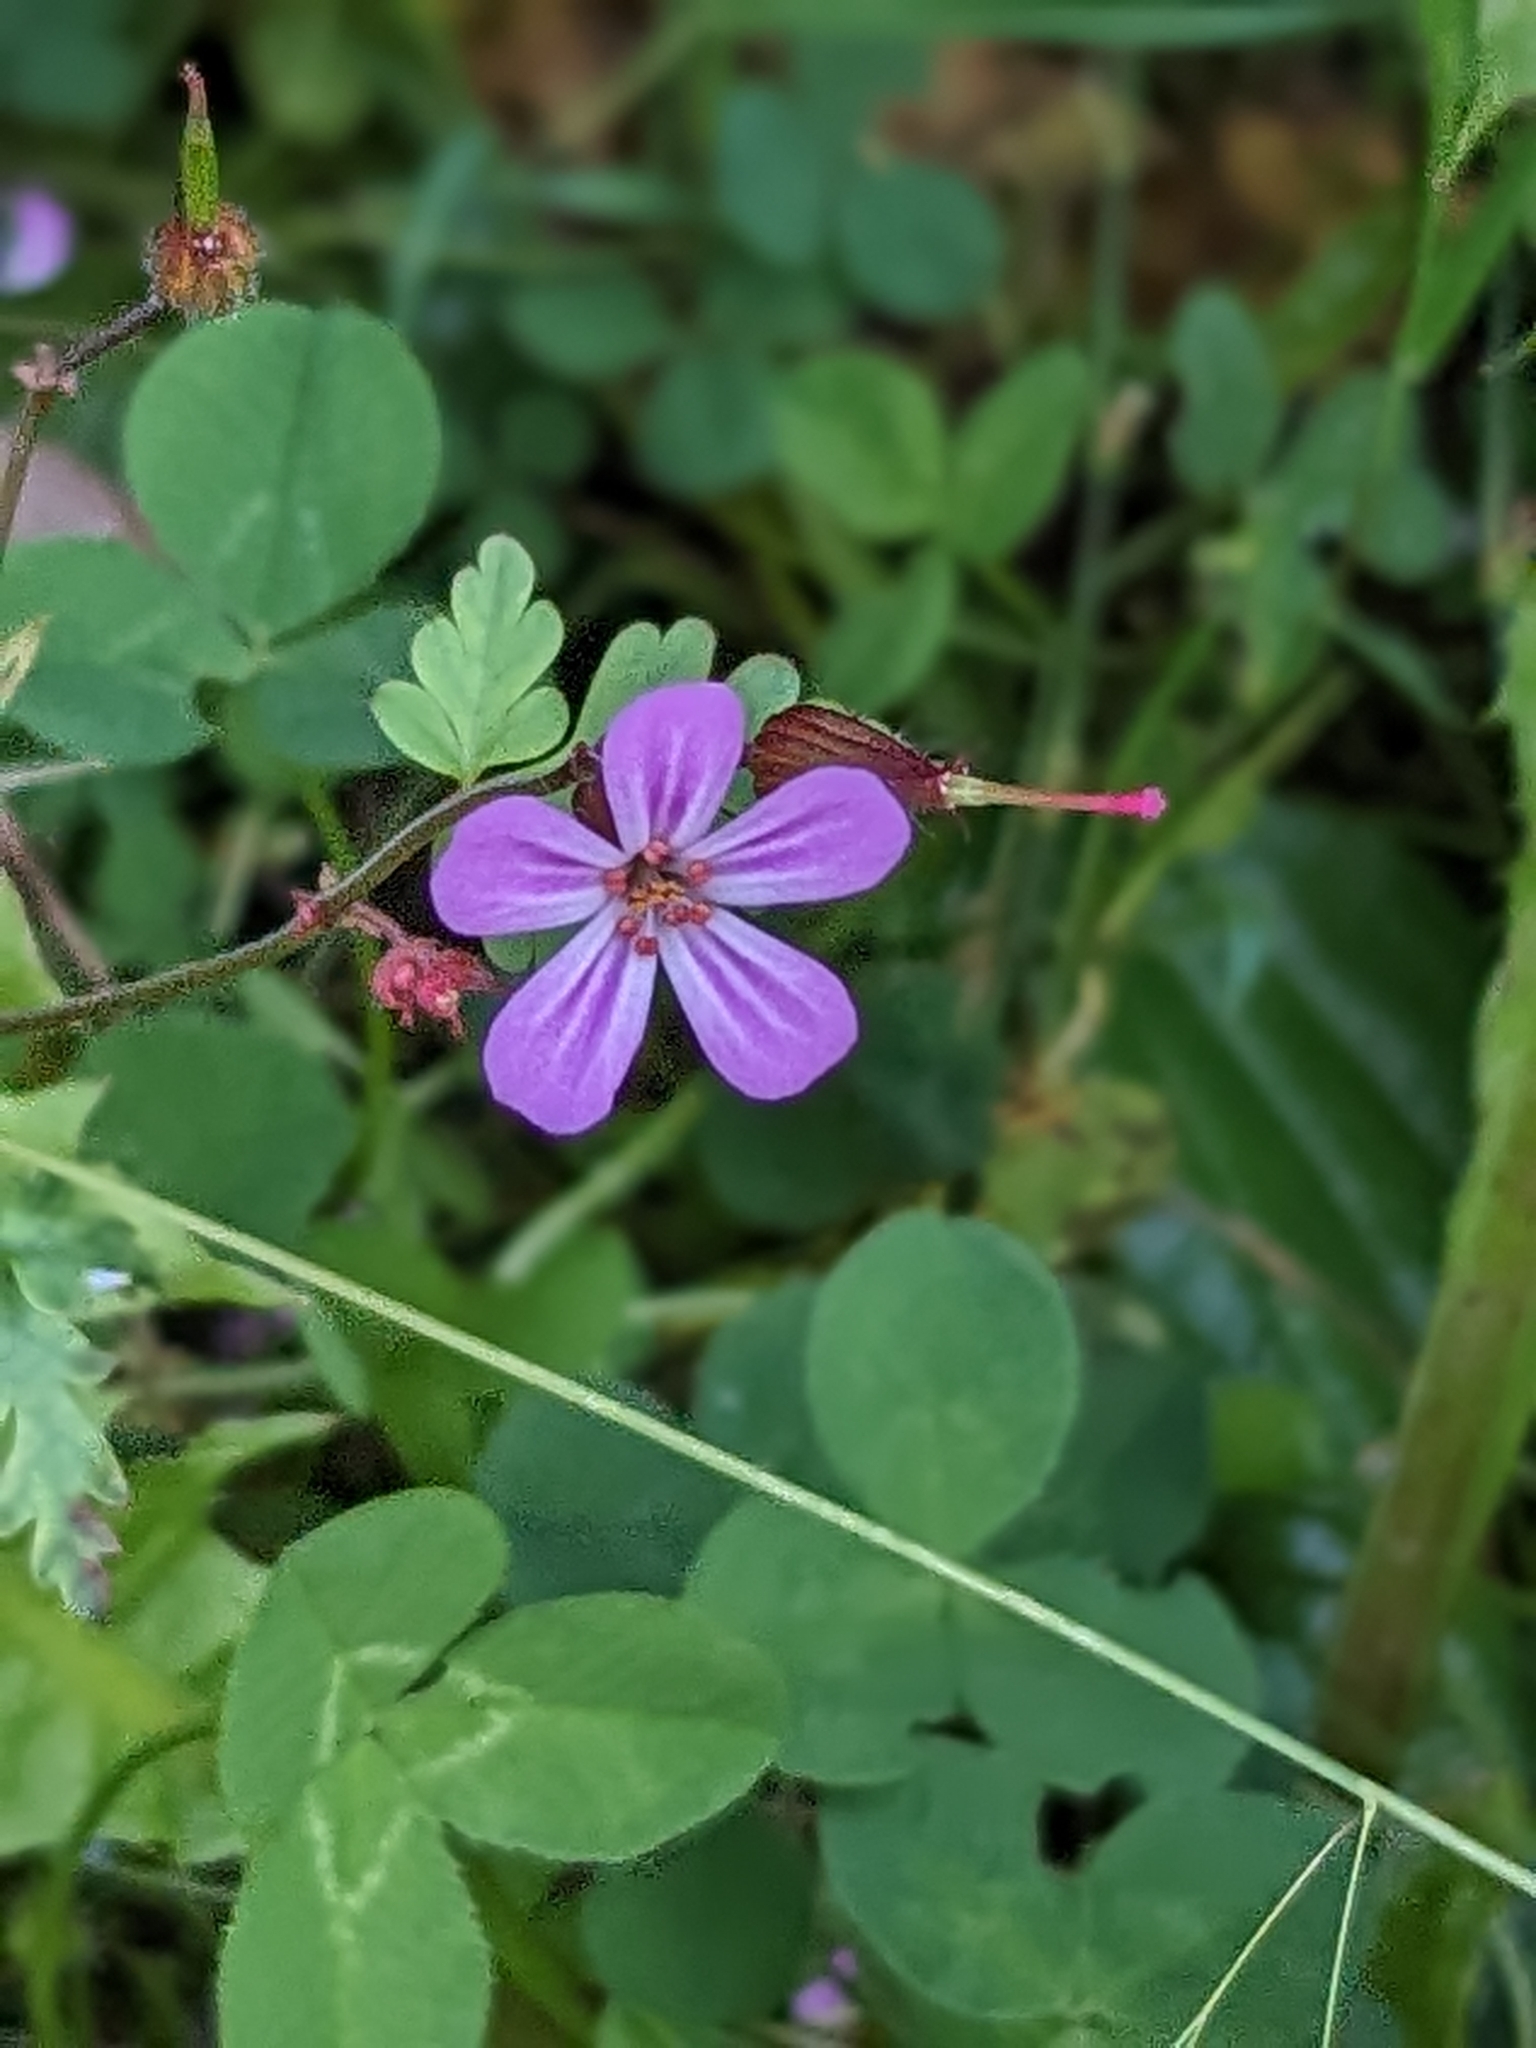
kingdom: Plantae
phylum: Tracheophyta
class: Magnoliopsida
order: Geraniales
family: Geraniaceae
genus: Geranium
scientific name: Geranium robertianum
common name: Herb-robert
